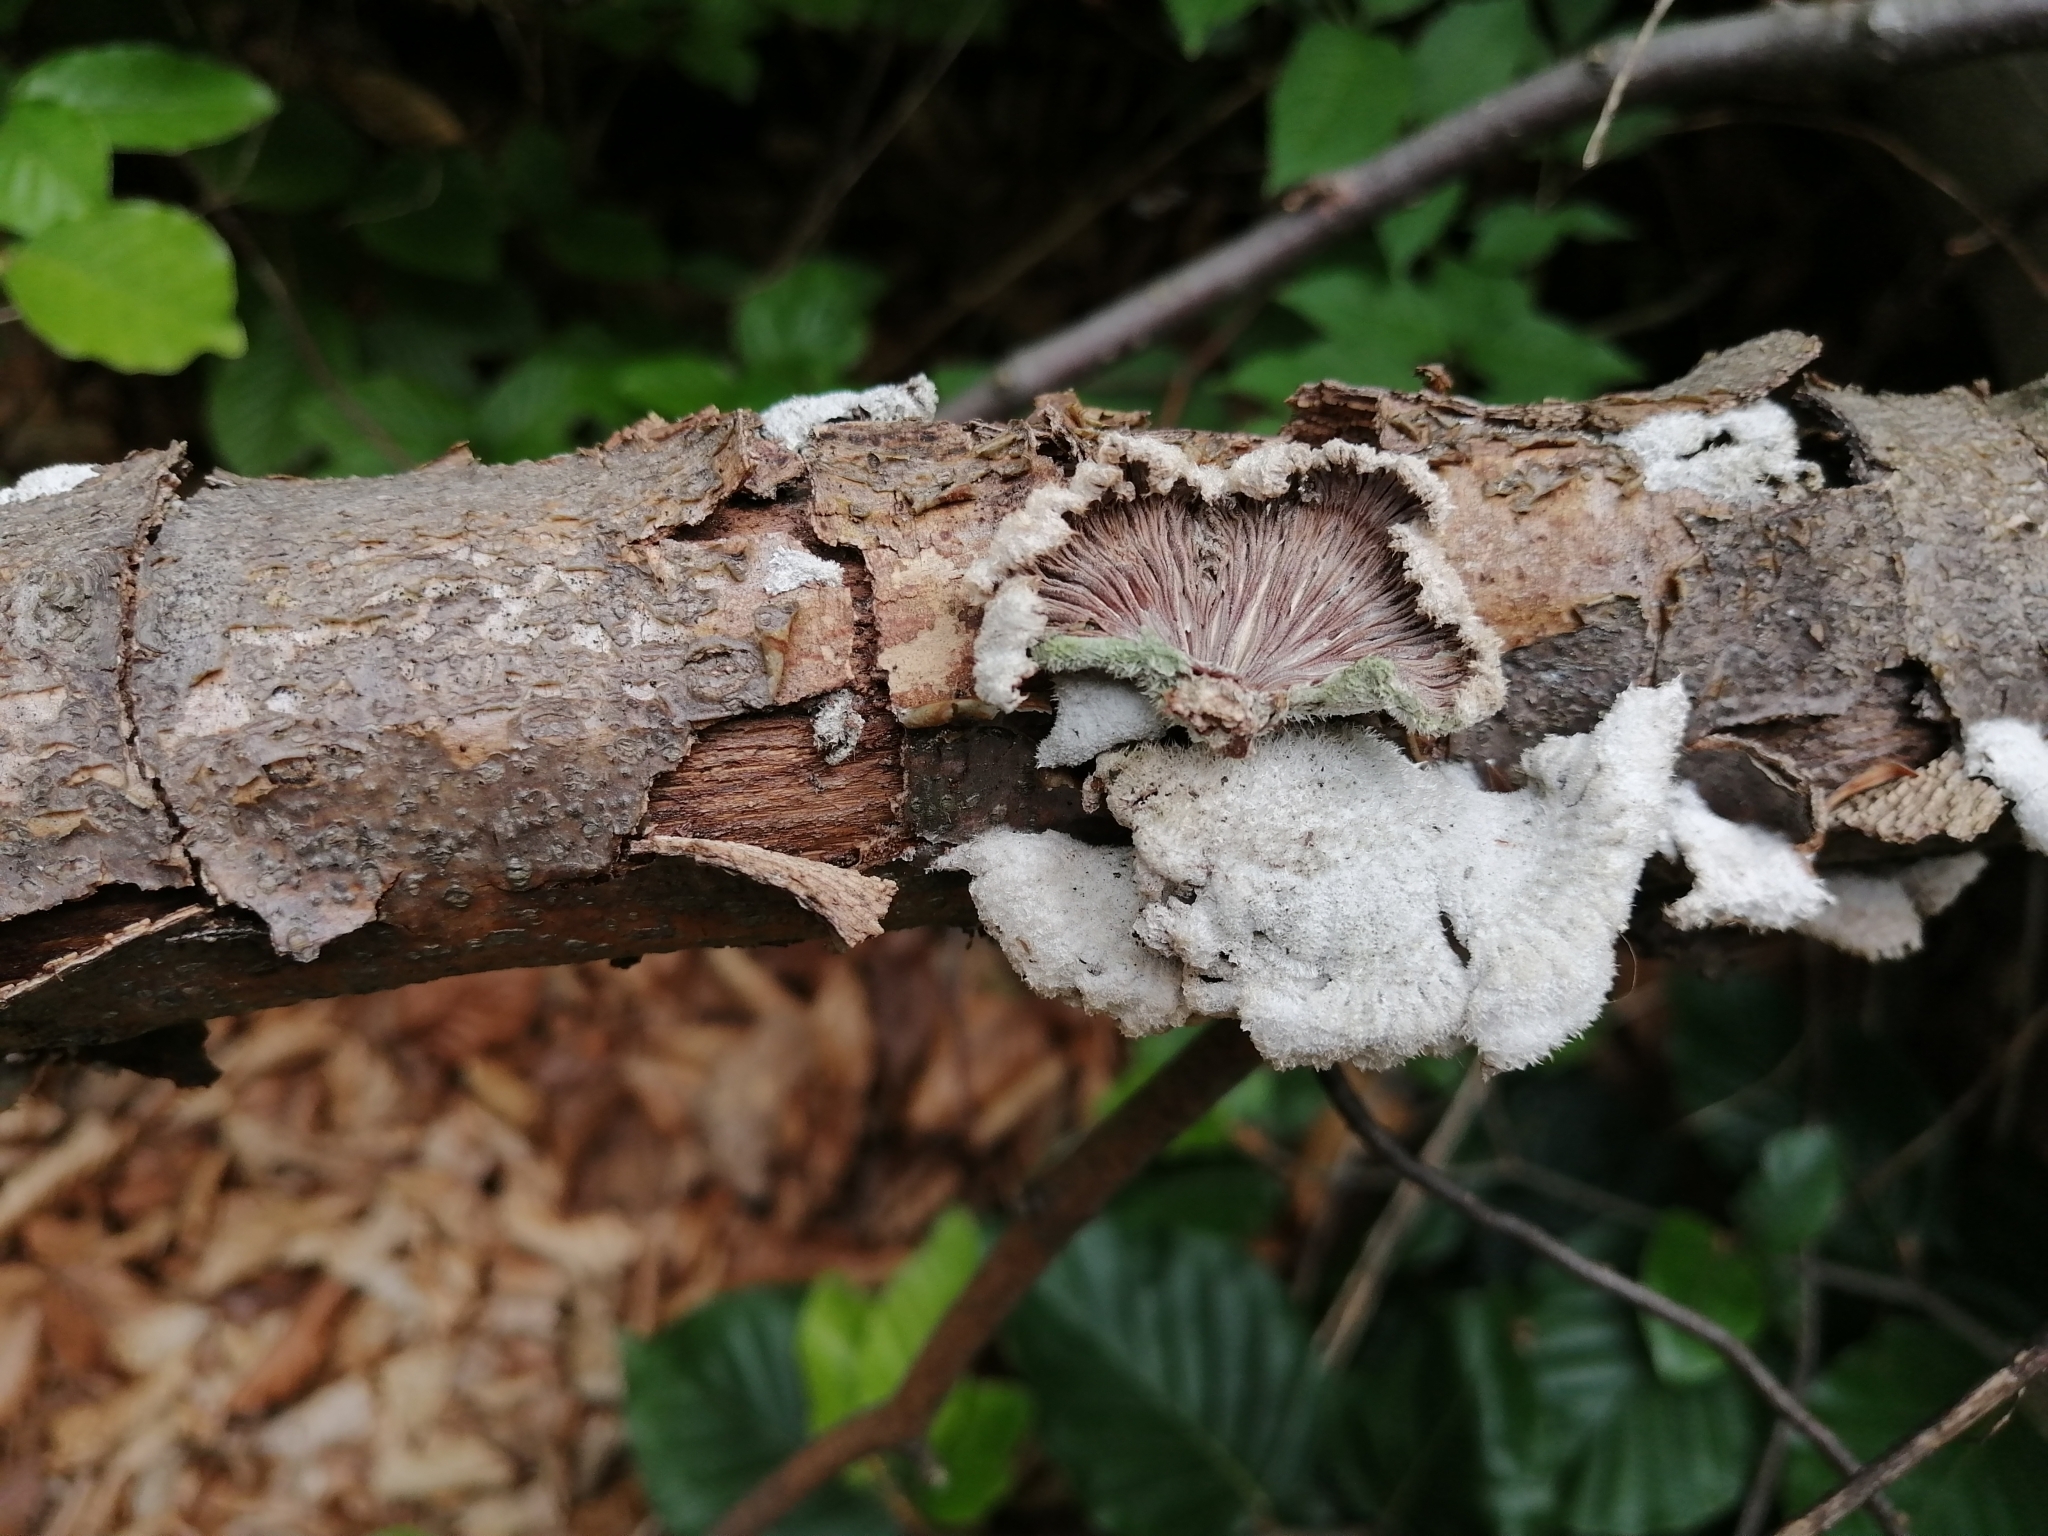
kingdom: Fungi
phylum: Basidiomycota
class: Agaricomycetes
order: Agaricales
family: Schizophyllaceae
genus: Schizophyllum
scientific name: Schizophyllum commune
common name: Common porecrust
